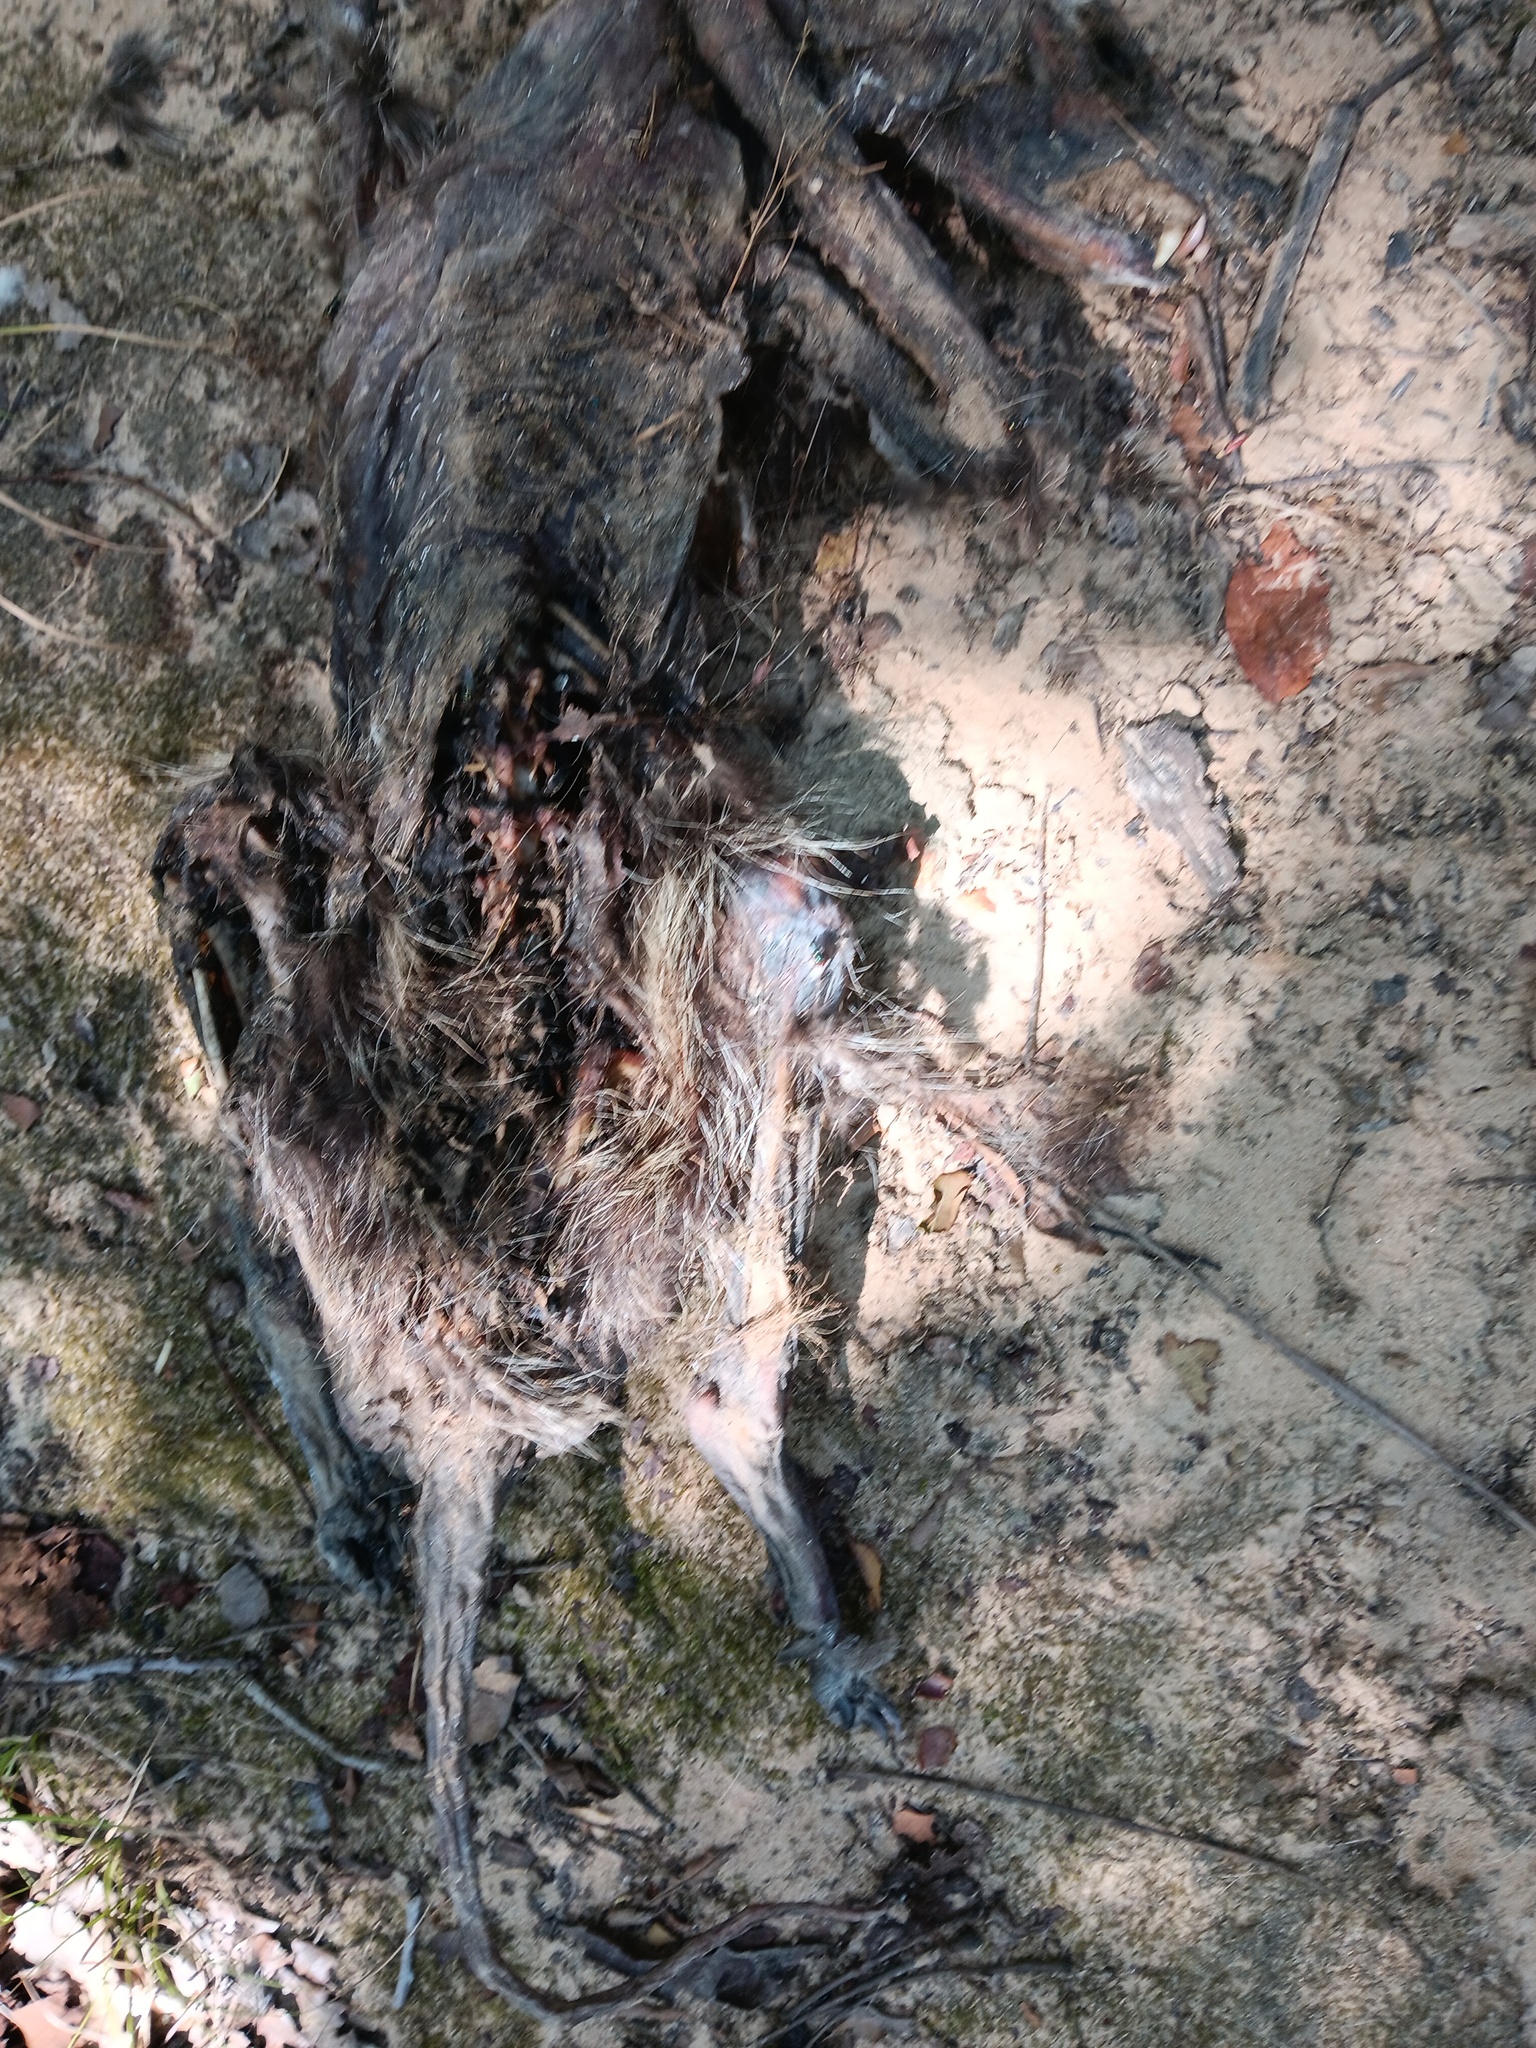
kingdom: Animalia
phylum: Chordata
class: Mammalia
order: Carnivora
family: Procyonidae
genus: Procyon
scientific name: Procyon lotor
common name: Raccoon
